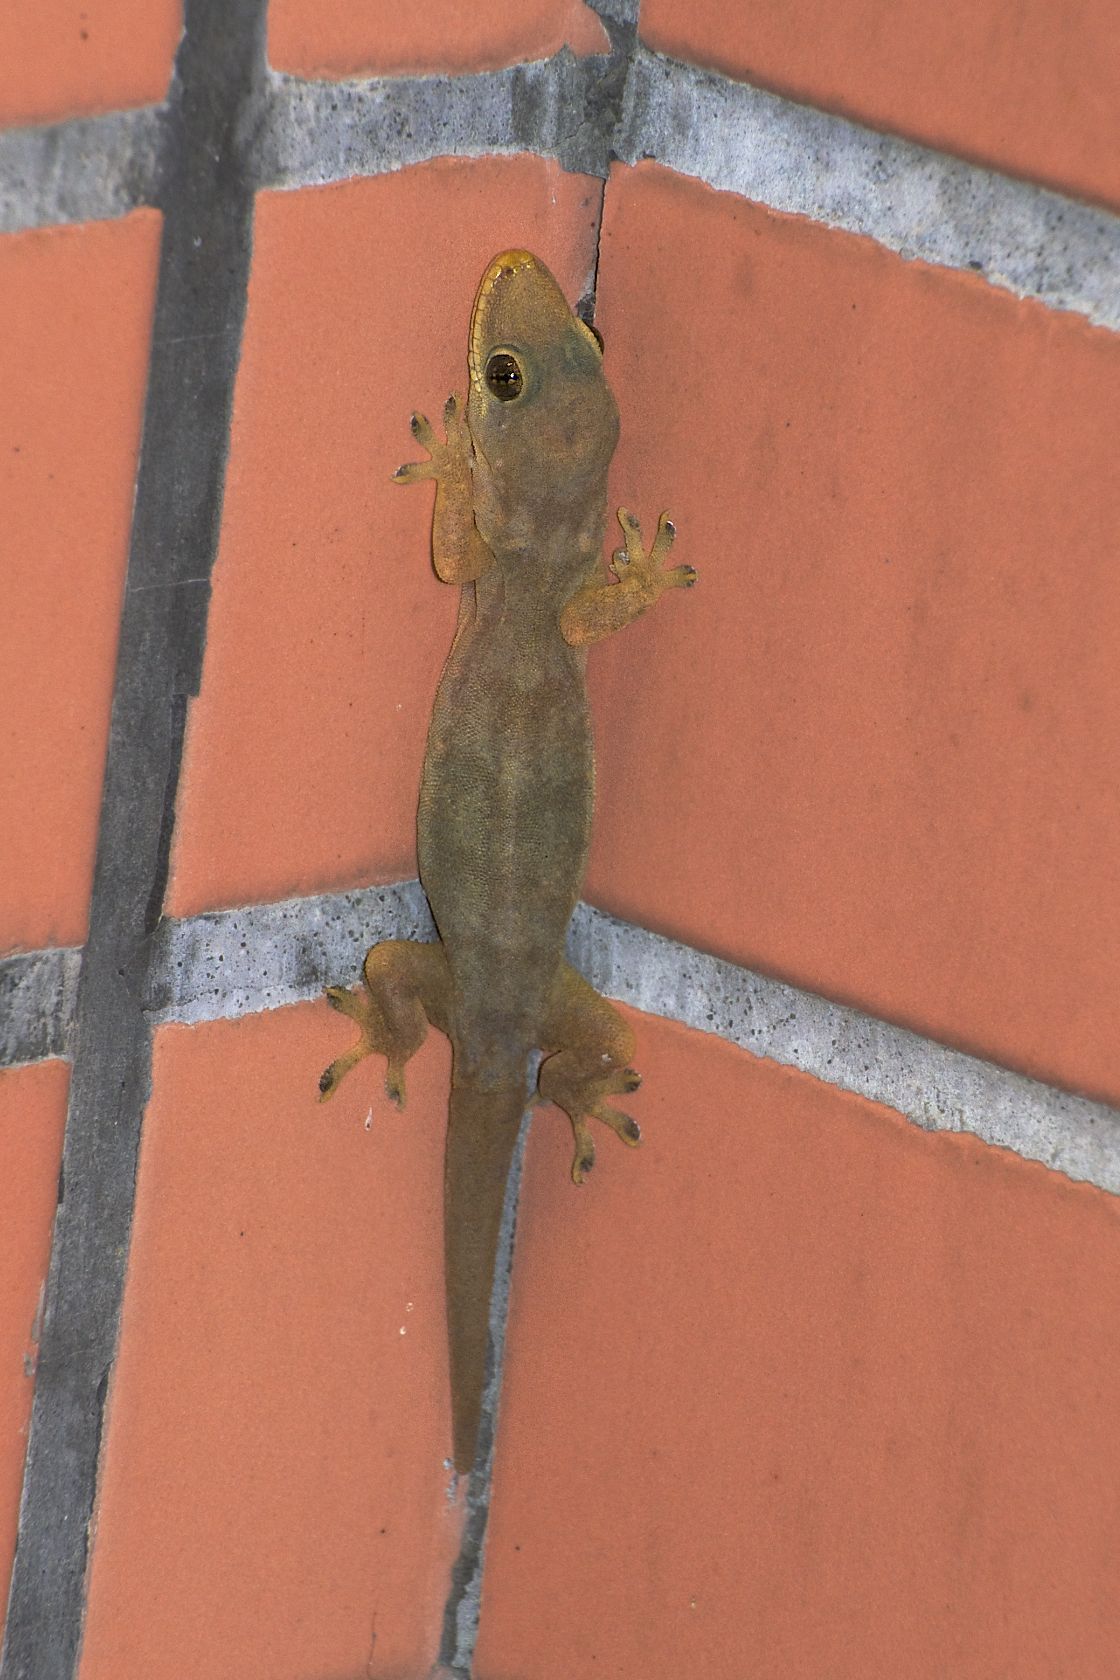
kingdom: Animalia
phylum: Chordata
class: Squamata
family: Gekkonidae
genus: Hemidactylus
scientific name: Hemidactylus bowringii
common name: Oriental leaf-toed gecko
